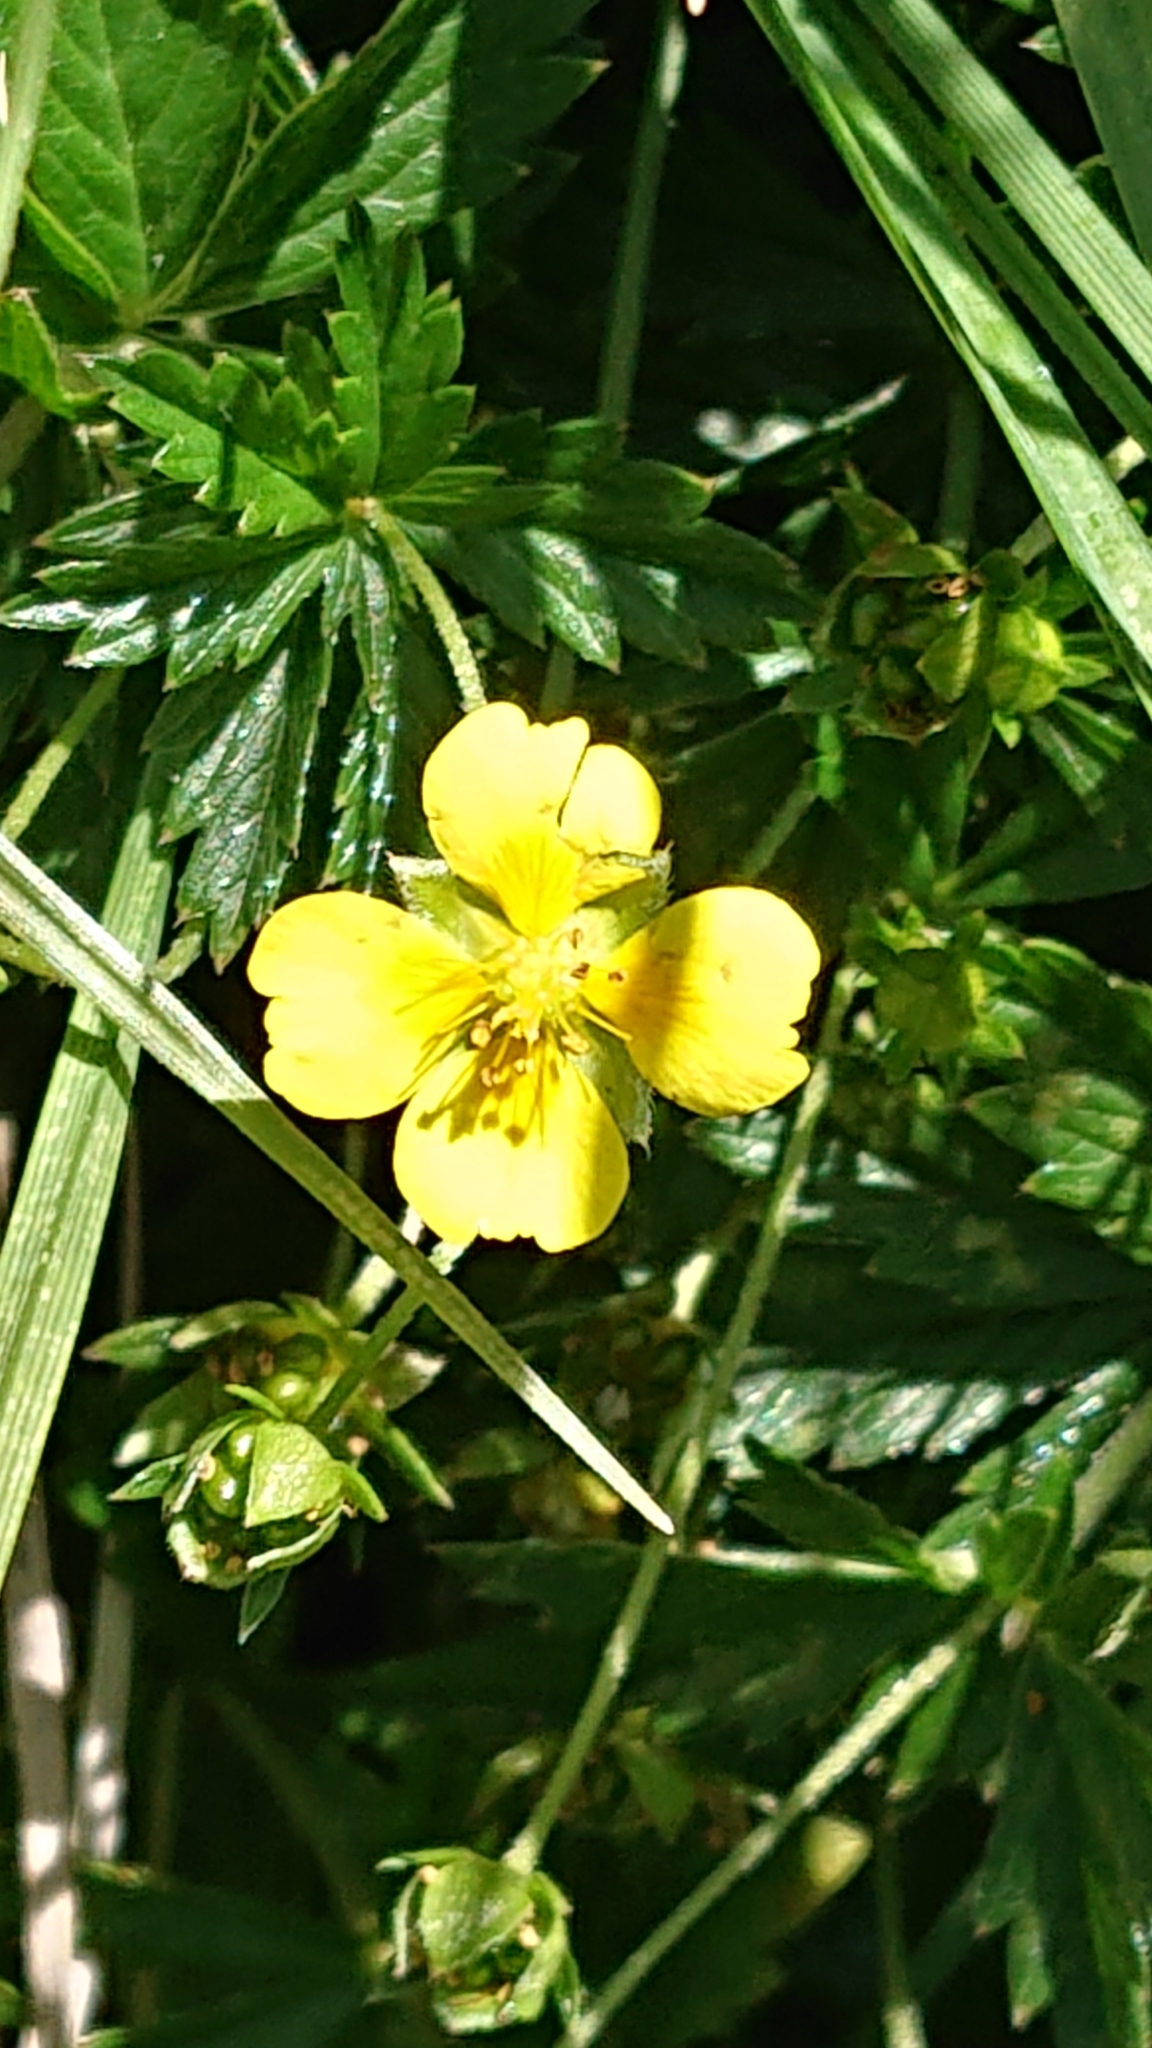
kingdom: Plantae
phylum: Tracheophyta
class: Magnoliopsida
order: Rosales
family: Rosaceae
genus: Potentilla
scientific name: Potentilla erecta
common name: Tormentil
